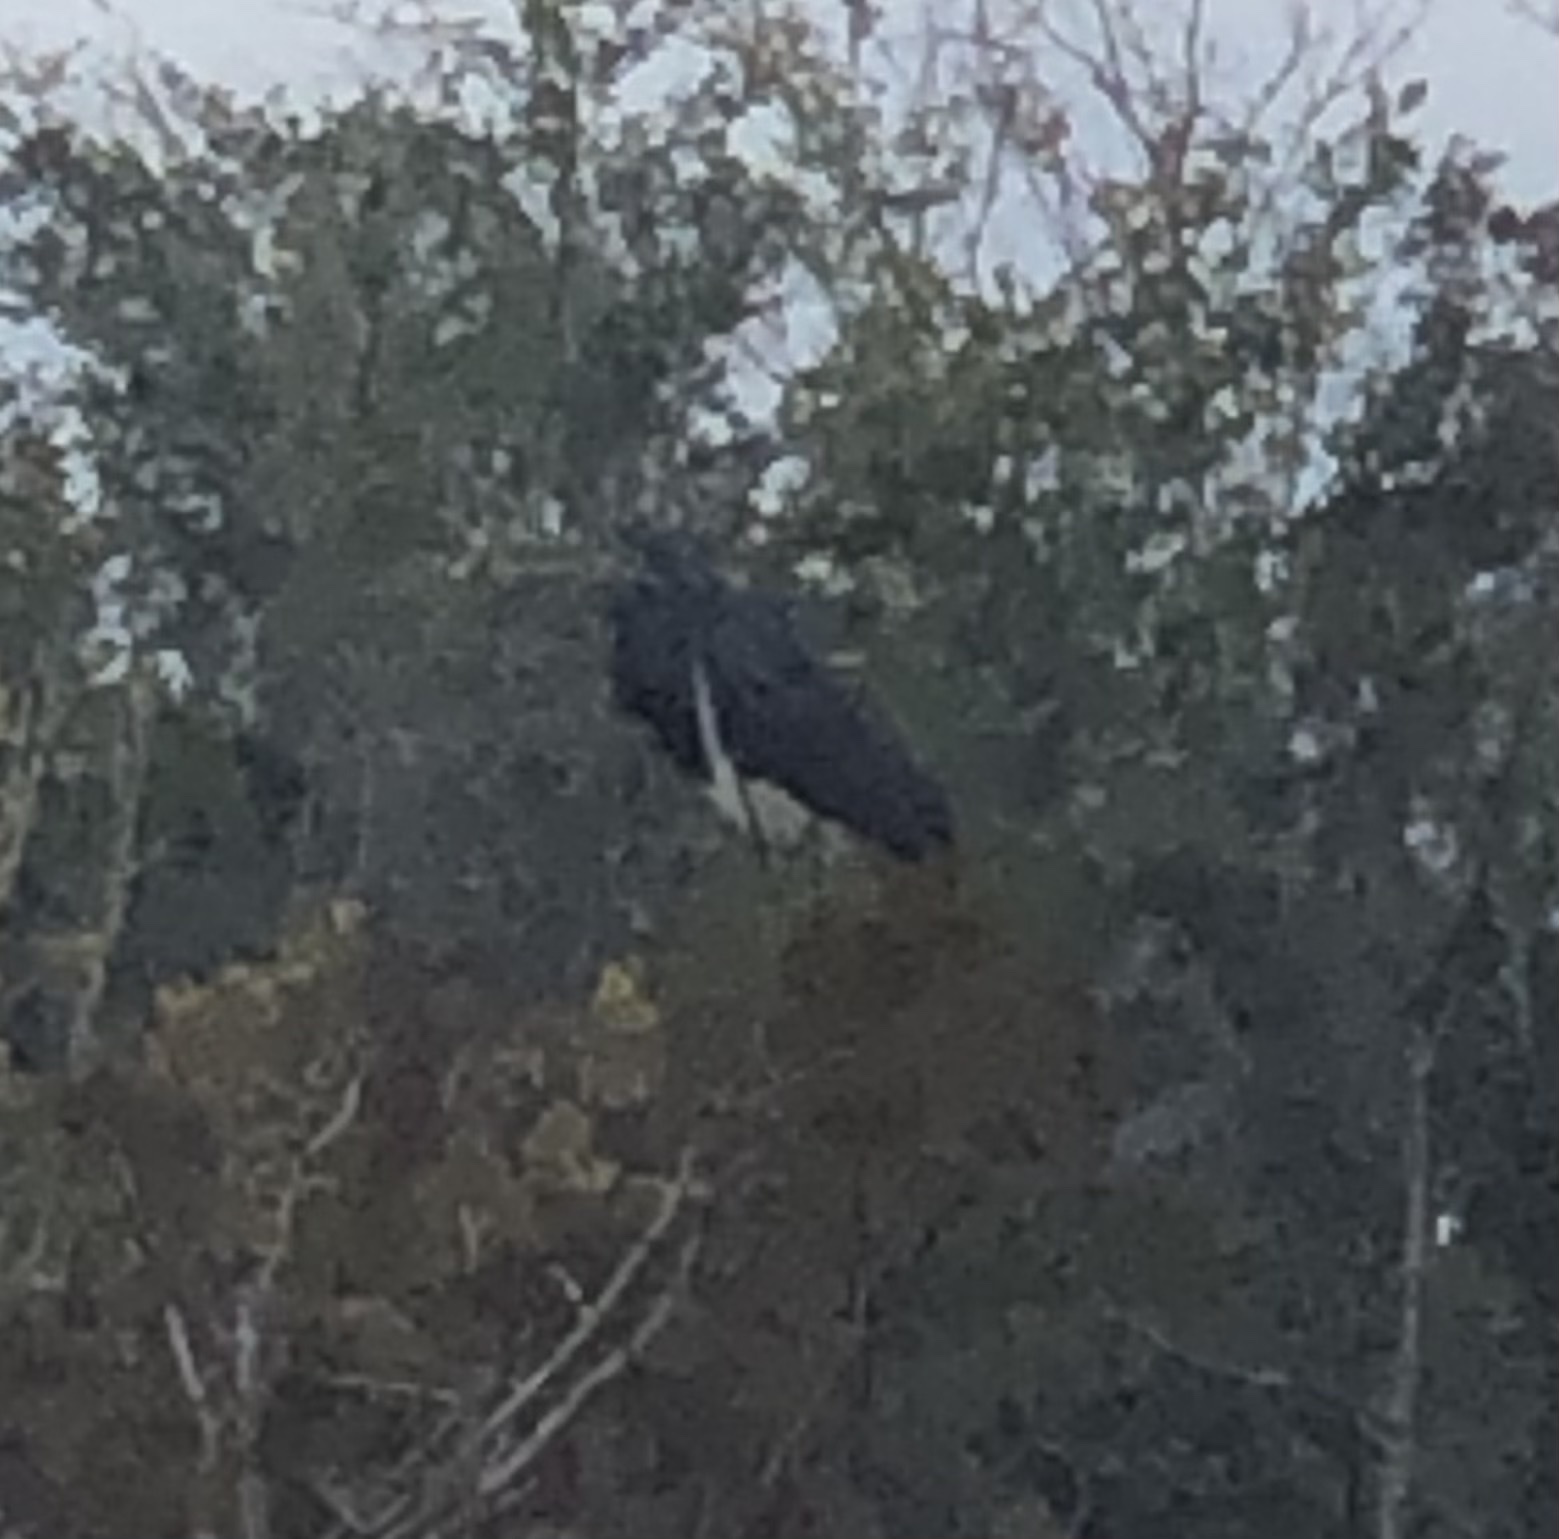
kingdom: Animalia
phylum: Chordata
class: Aves
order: Pelecaniformes
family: Ardeidae
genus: Egretta
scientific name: Egretta tricolor
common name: Tricolored heron
